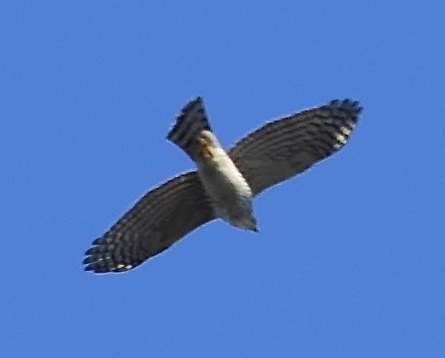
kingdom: Animalia
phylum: Chordata
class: Aves
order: Accipitriformes
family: Accipitridae
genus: Accipiter
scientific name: Accipiter
